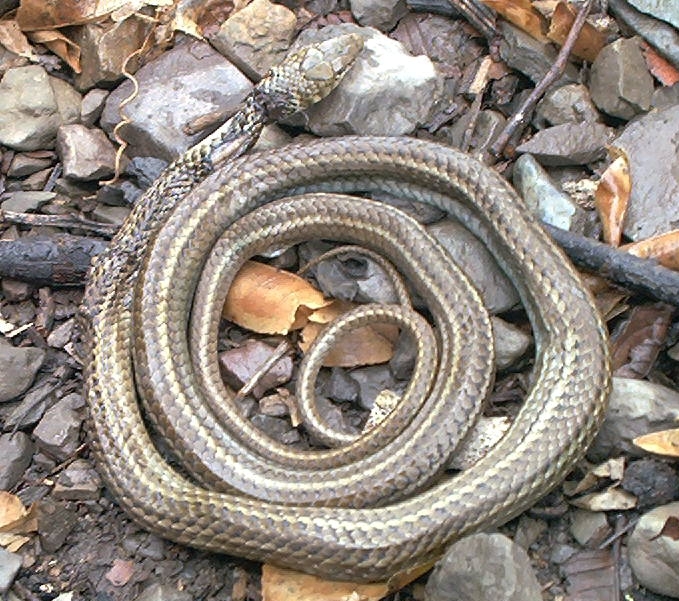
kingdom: Animalia
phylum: Chordata
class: Squamata
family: Colubridae
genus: Philodryas
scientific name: Philodryas trilineata
